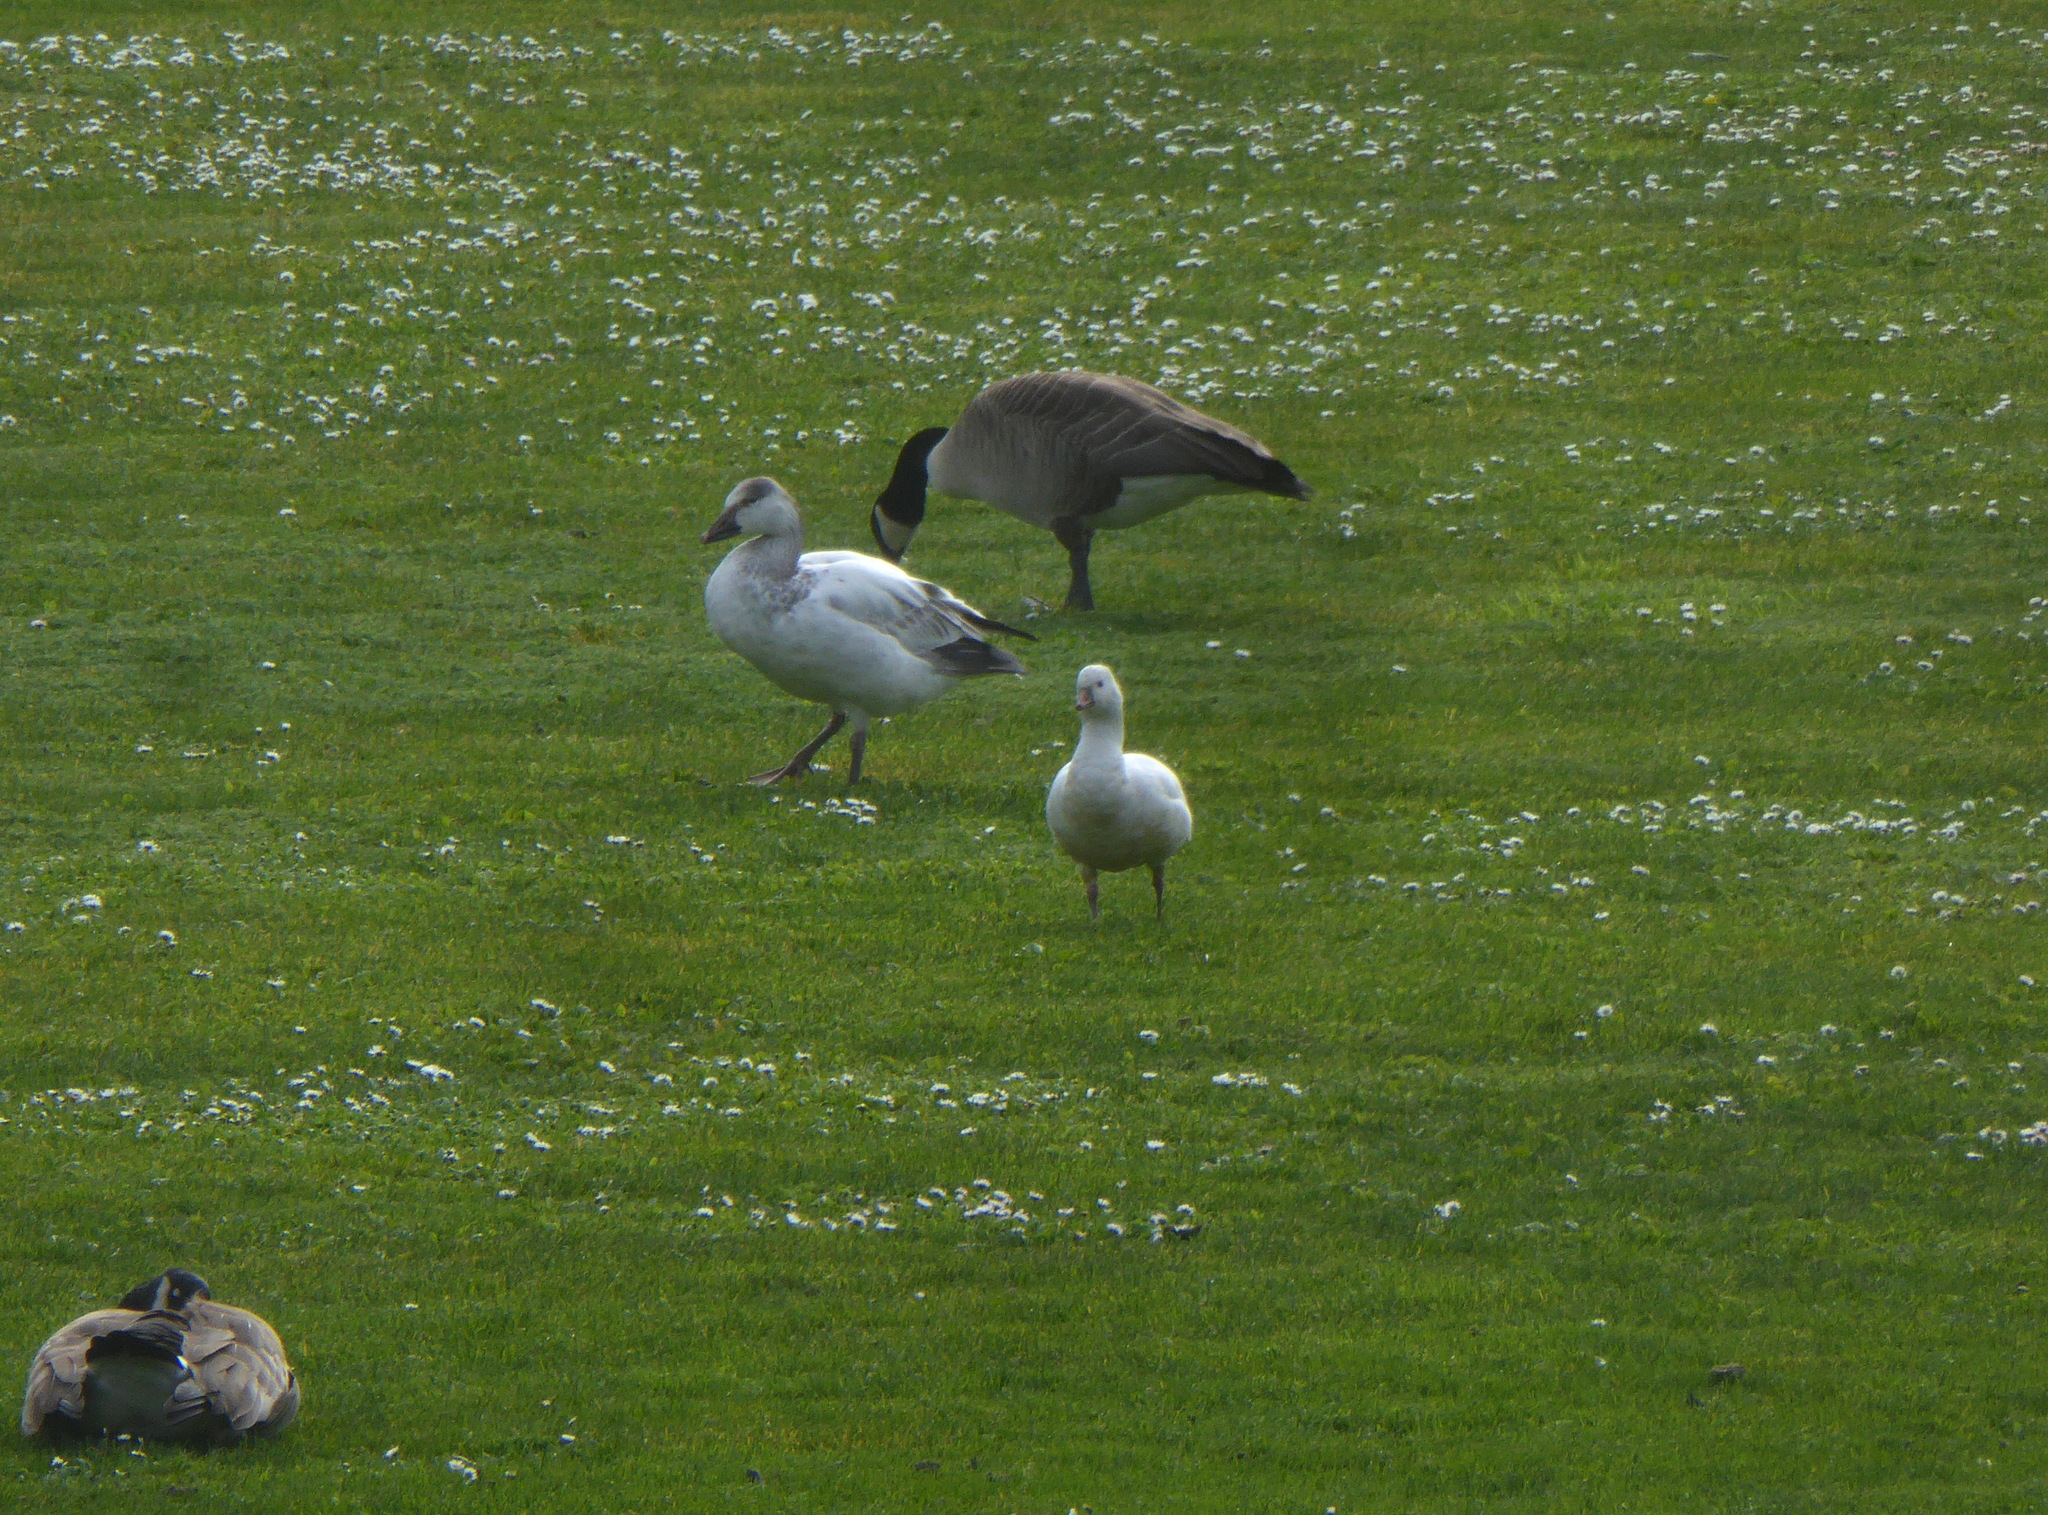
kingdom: Animalia
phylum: Chordata
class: Aves
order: Anseriformes
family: Anatidae
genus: Anser
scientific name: Anser rossii
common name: Ross's goose
